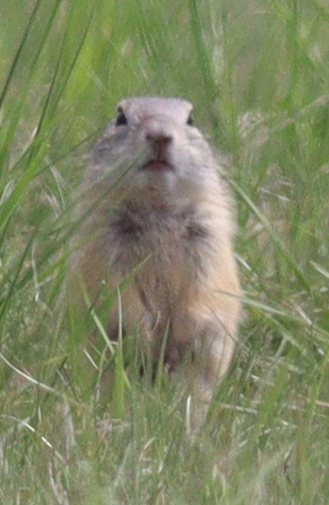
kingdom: Animalia
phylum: Chordata
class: Mammalia
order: Rodentia
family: Sciuridae
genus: Spermophilus
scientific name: Spermophilus citellus
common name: European ground squirrel
